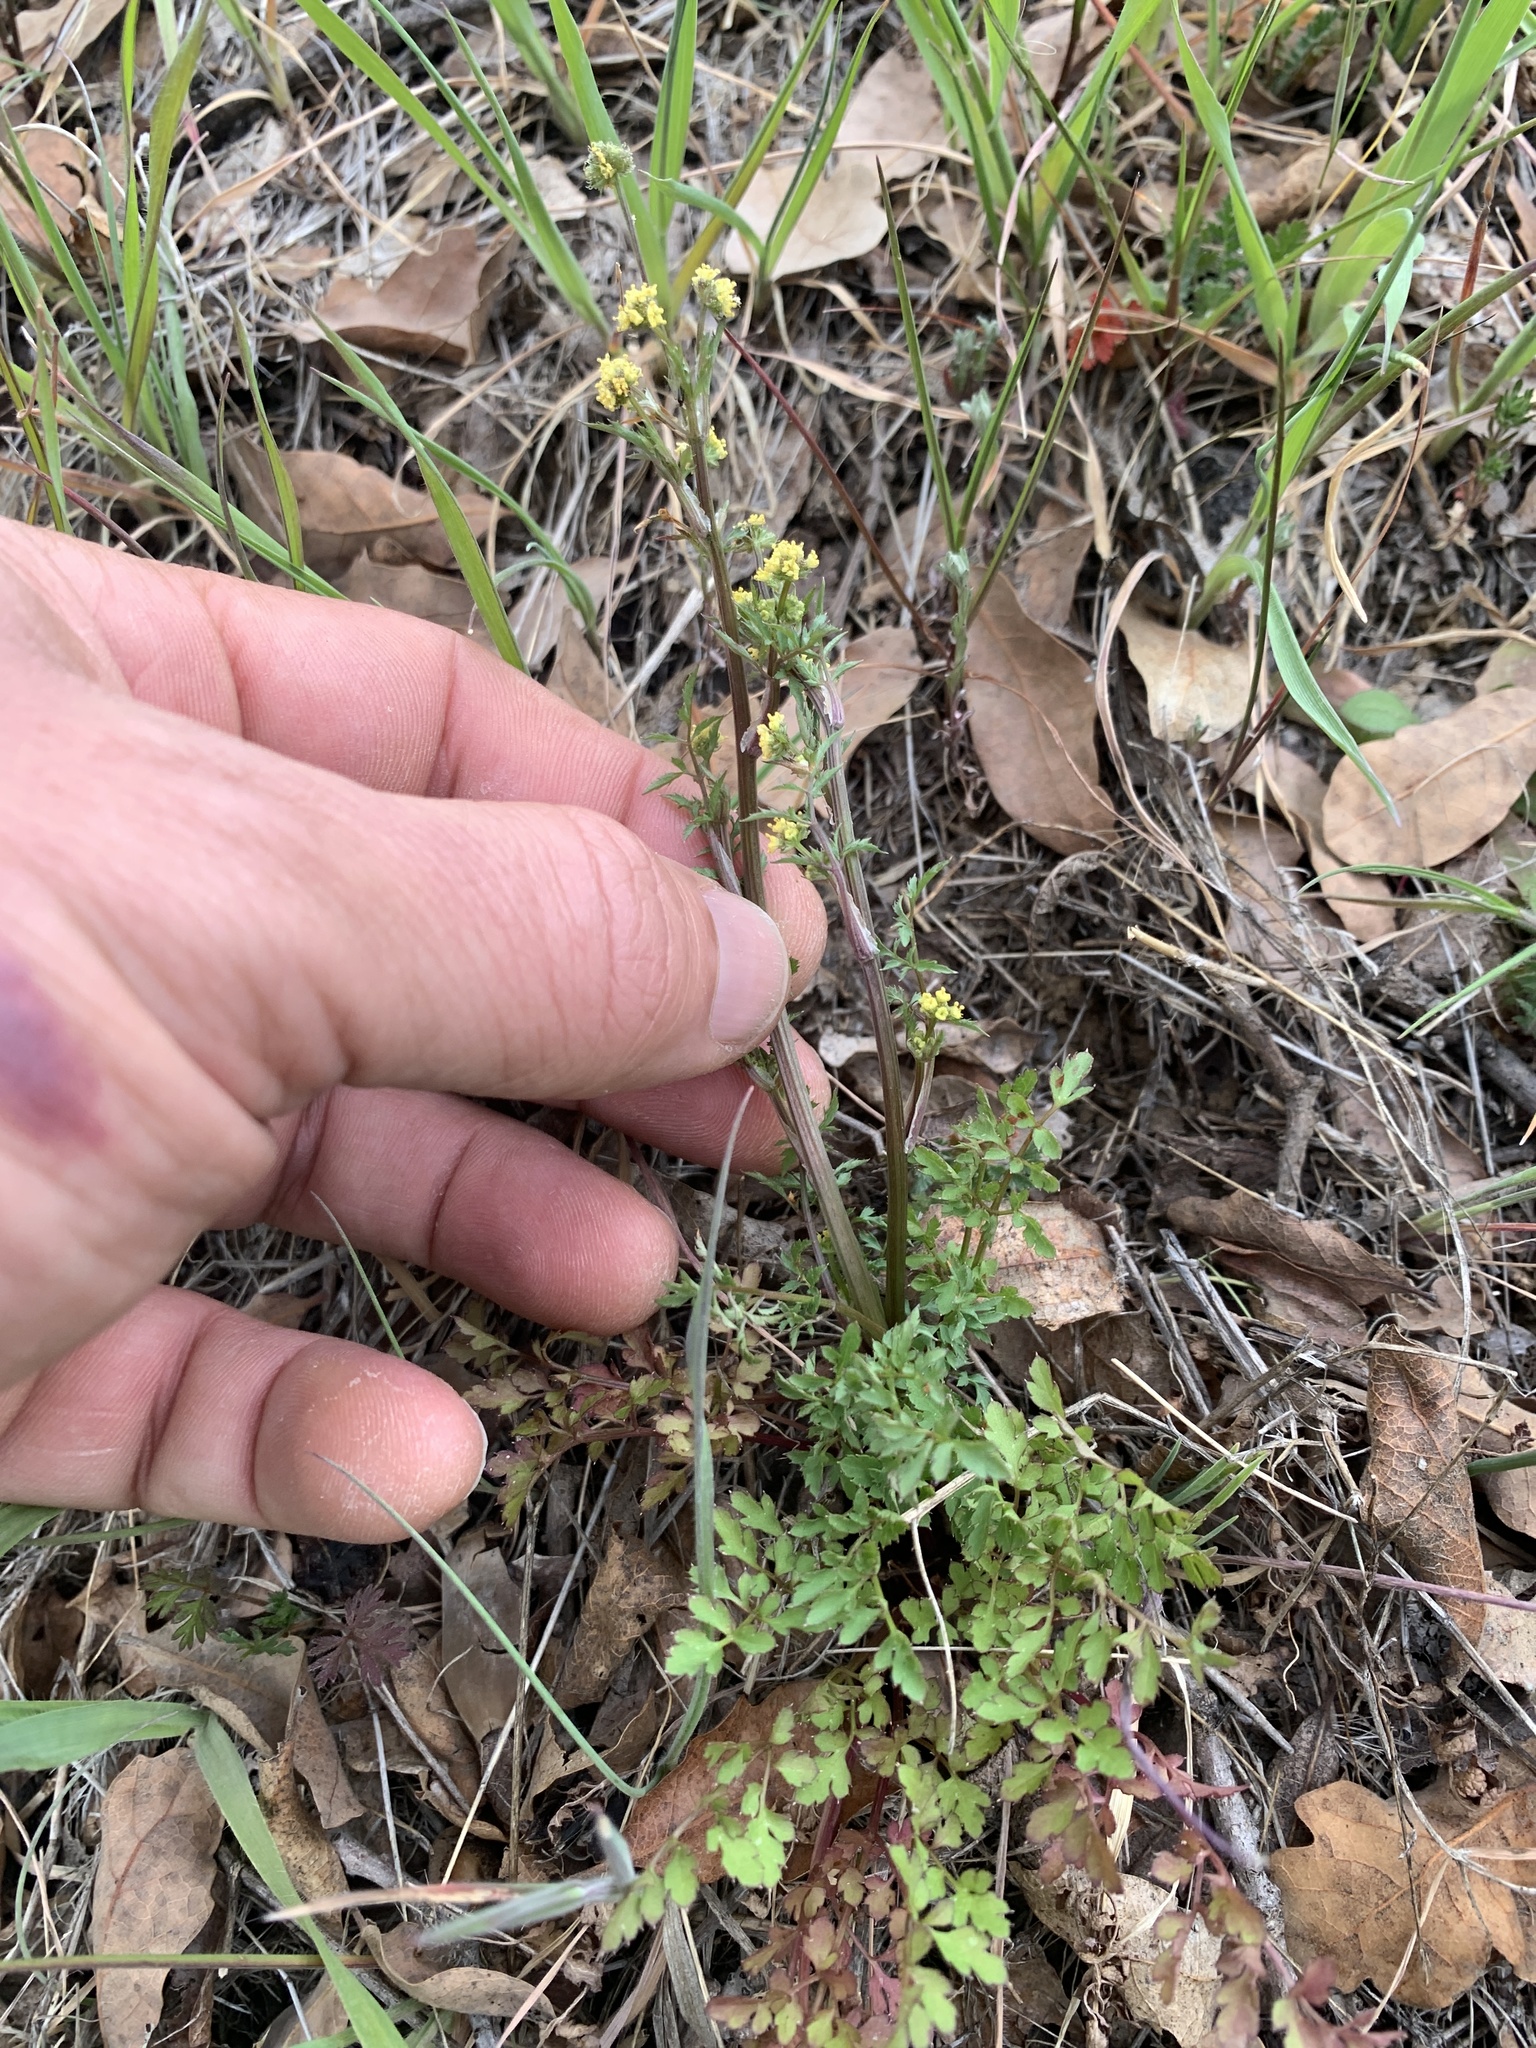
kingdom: Plantae
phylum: Tracheophyta
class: Magnoliopsida
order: Apiales
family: Apiaceae
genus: Sanicula
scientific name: Sanicula bipinnata
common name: Poison sanicle
